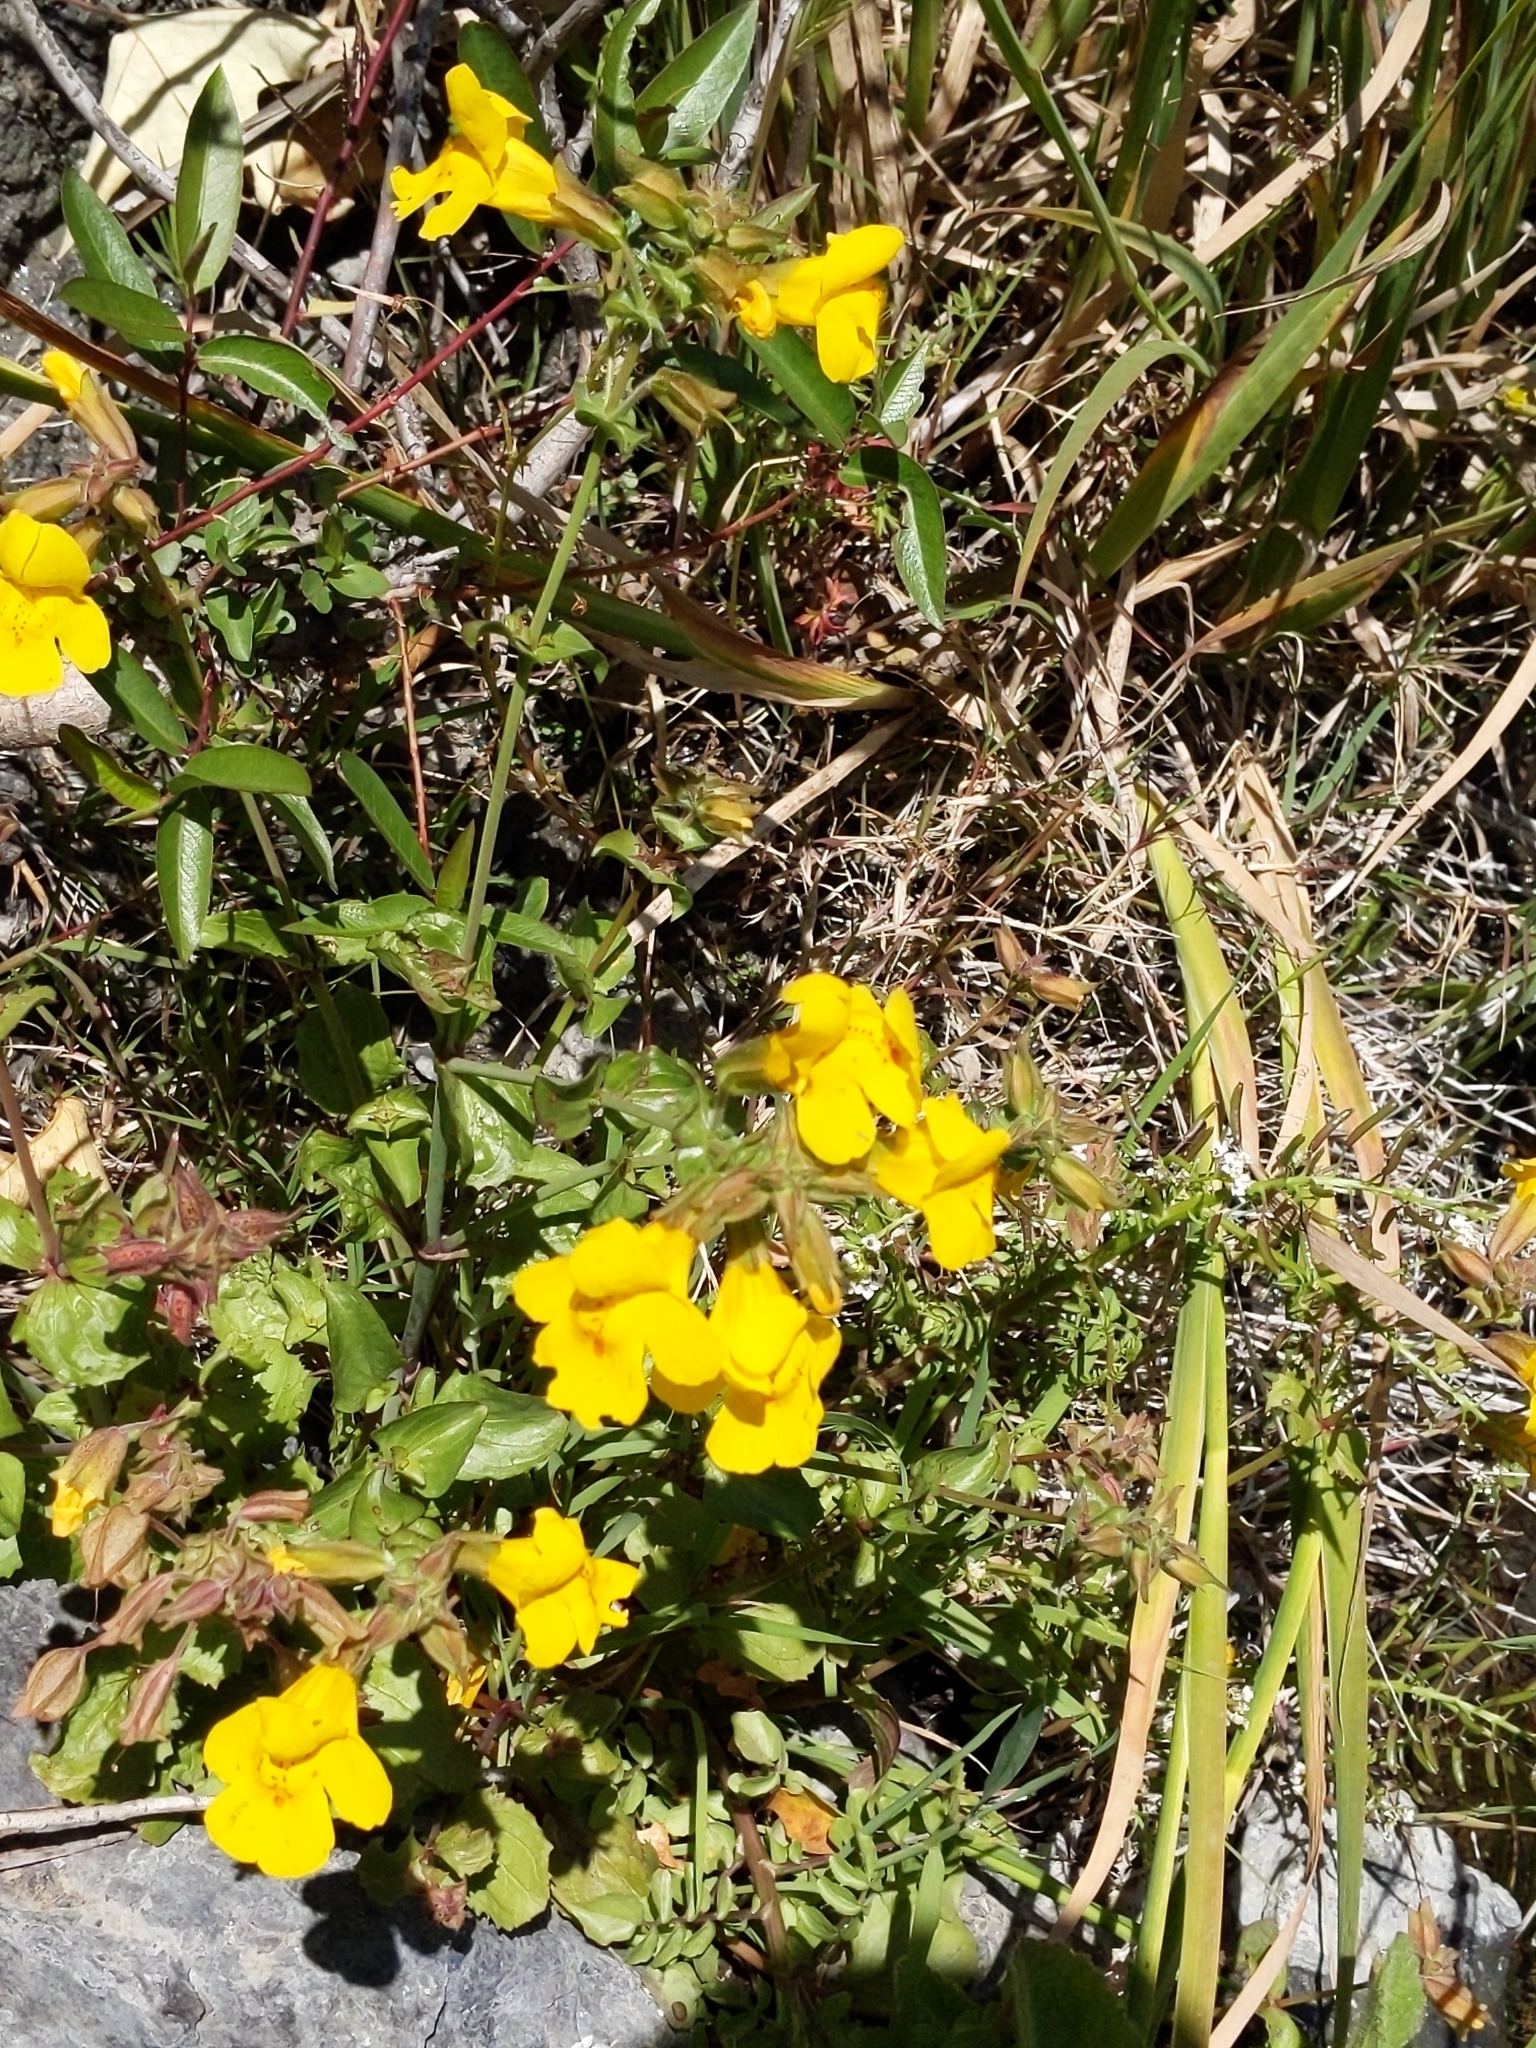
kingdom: Plantae
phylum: Tracheophyta
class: Magnoliopsida
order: Lamiales
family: Phrymaceae
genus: Erythranthe
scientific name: Erythranthe guttata
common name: Monkeyflower
